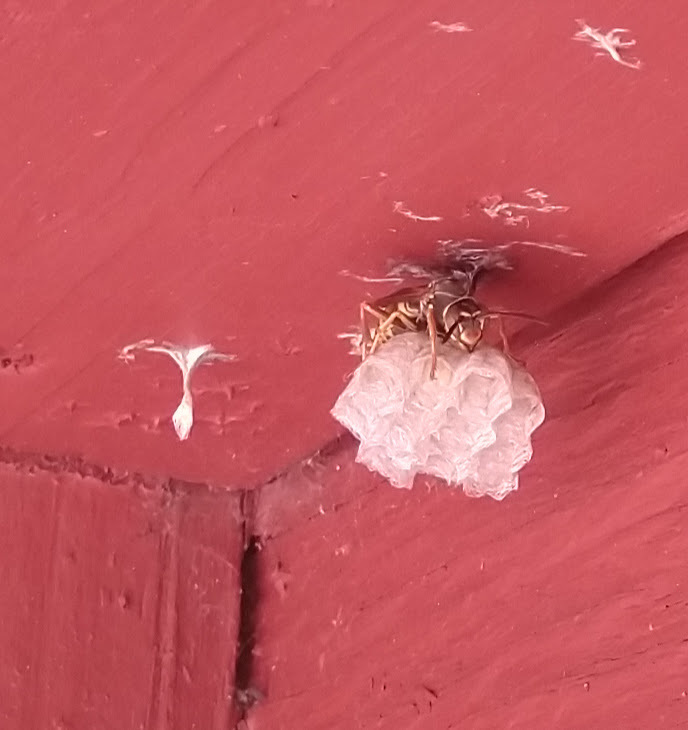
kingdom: Animalia
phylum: Arthropoda
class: Insecta
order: Hymenoptera
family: Eumenidae
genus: Polistes
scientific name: Polistes fuscatus
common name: Dark paper wasp
